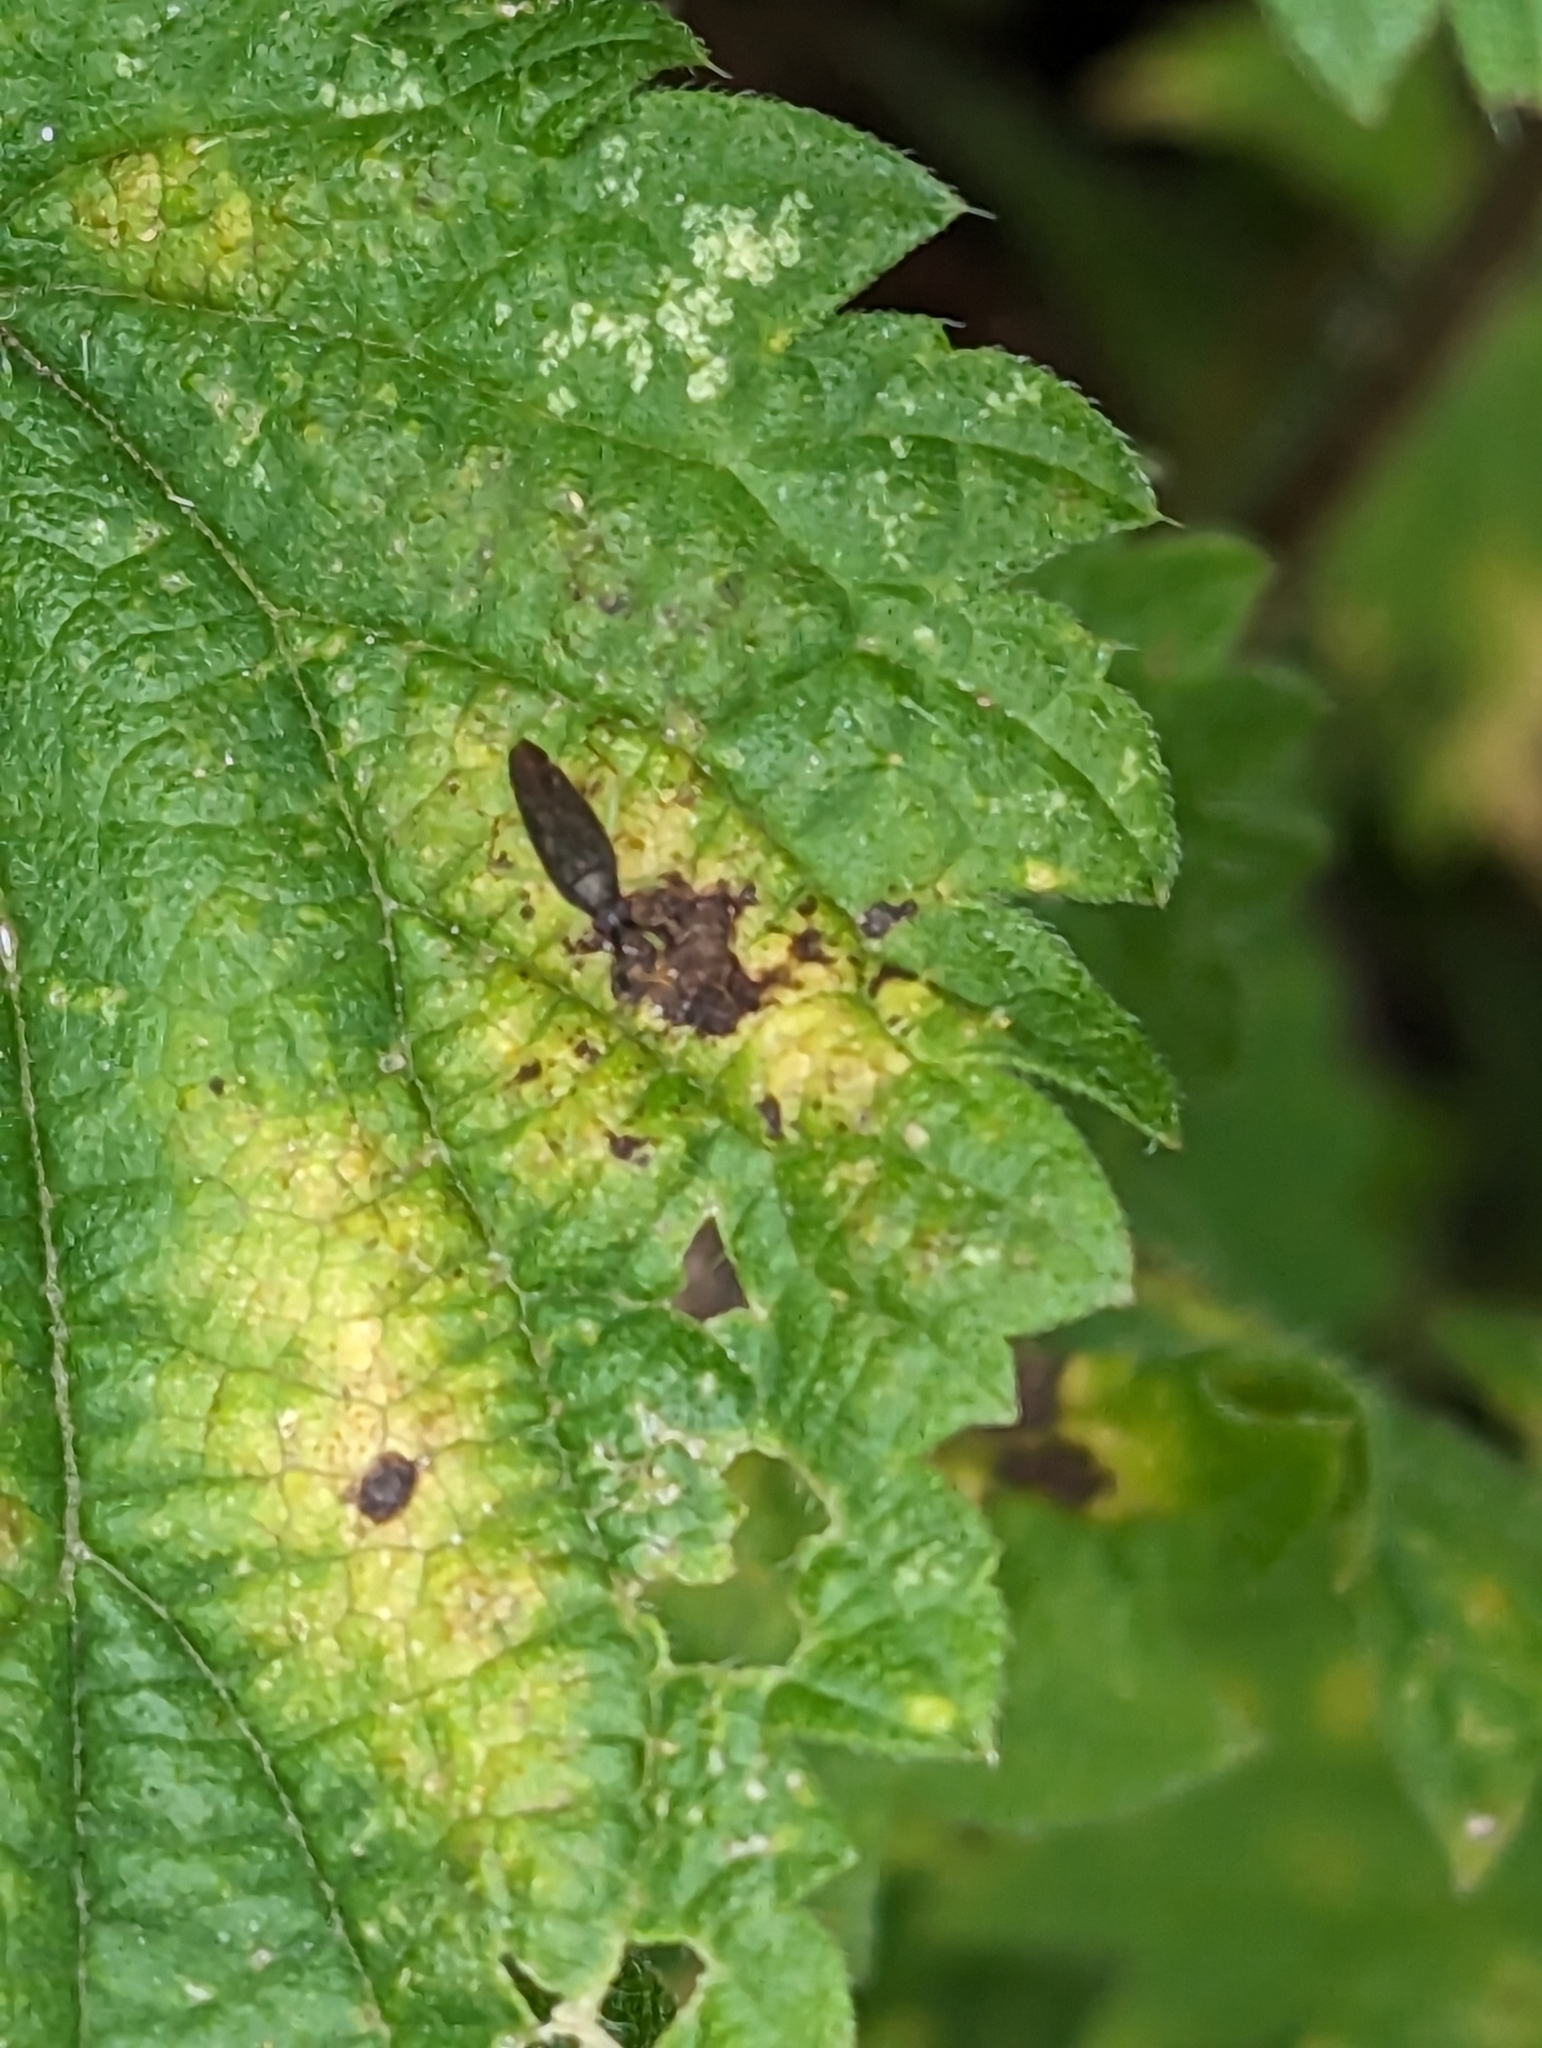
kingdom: Animalia
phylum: Arthropoda
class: Insecta
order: Hemiptera
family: Miridae
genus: Heterotoma
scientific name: Heterotoma planicornis
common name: Plant bug
